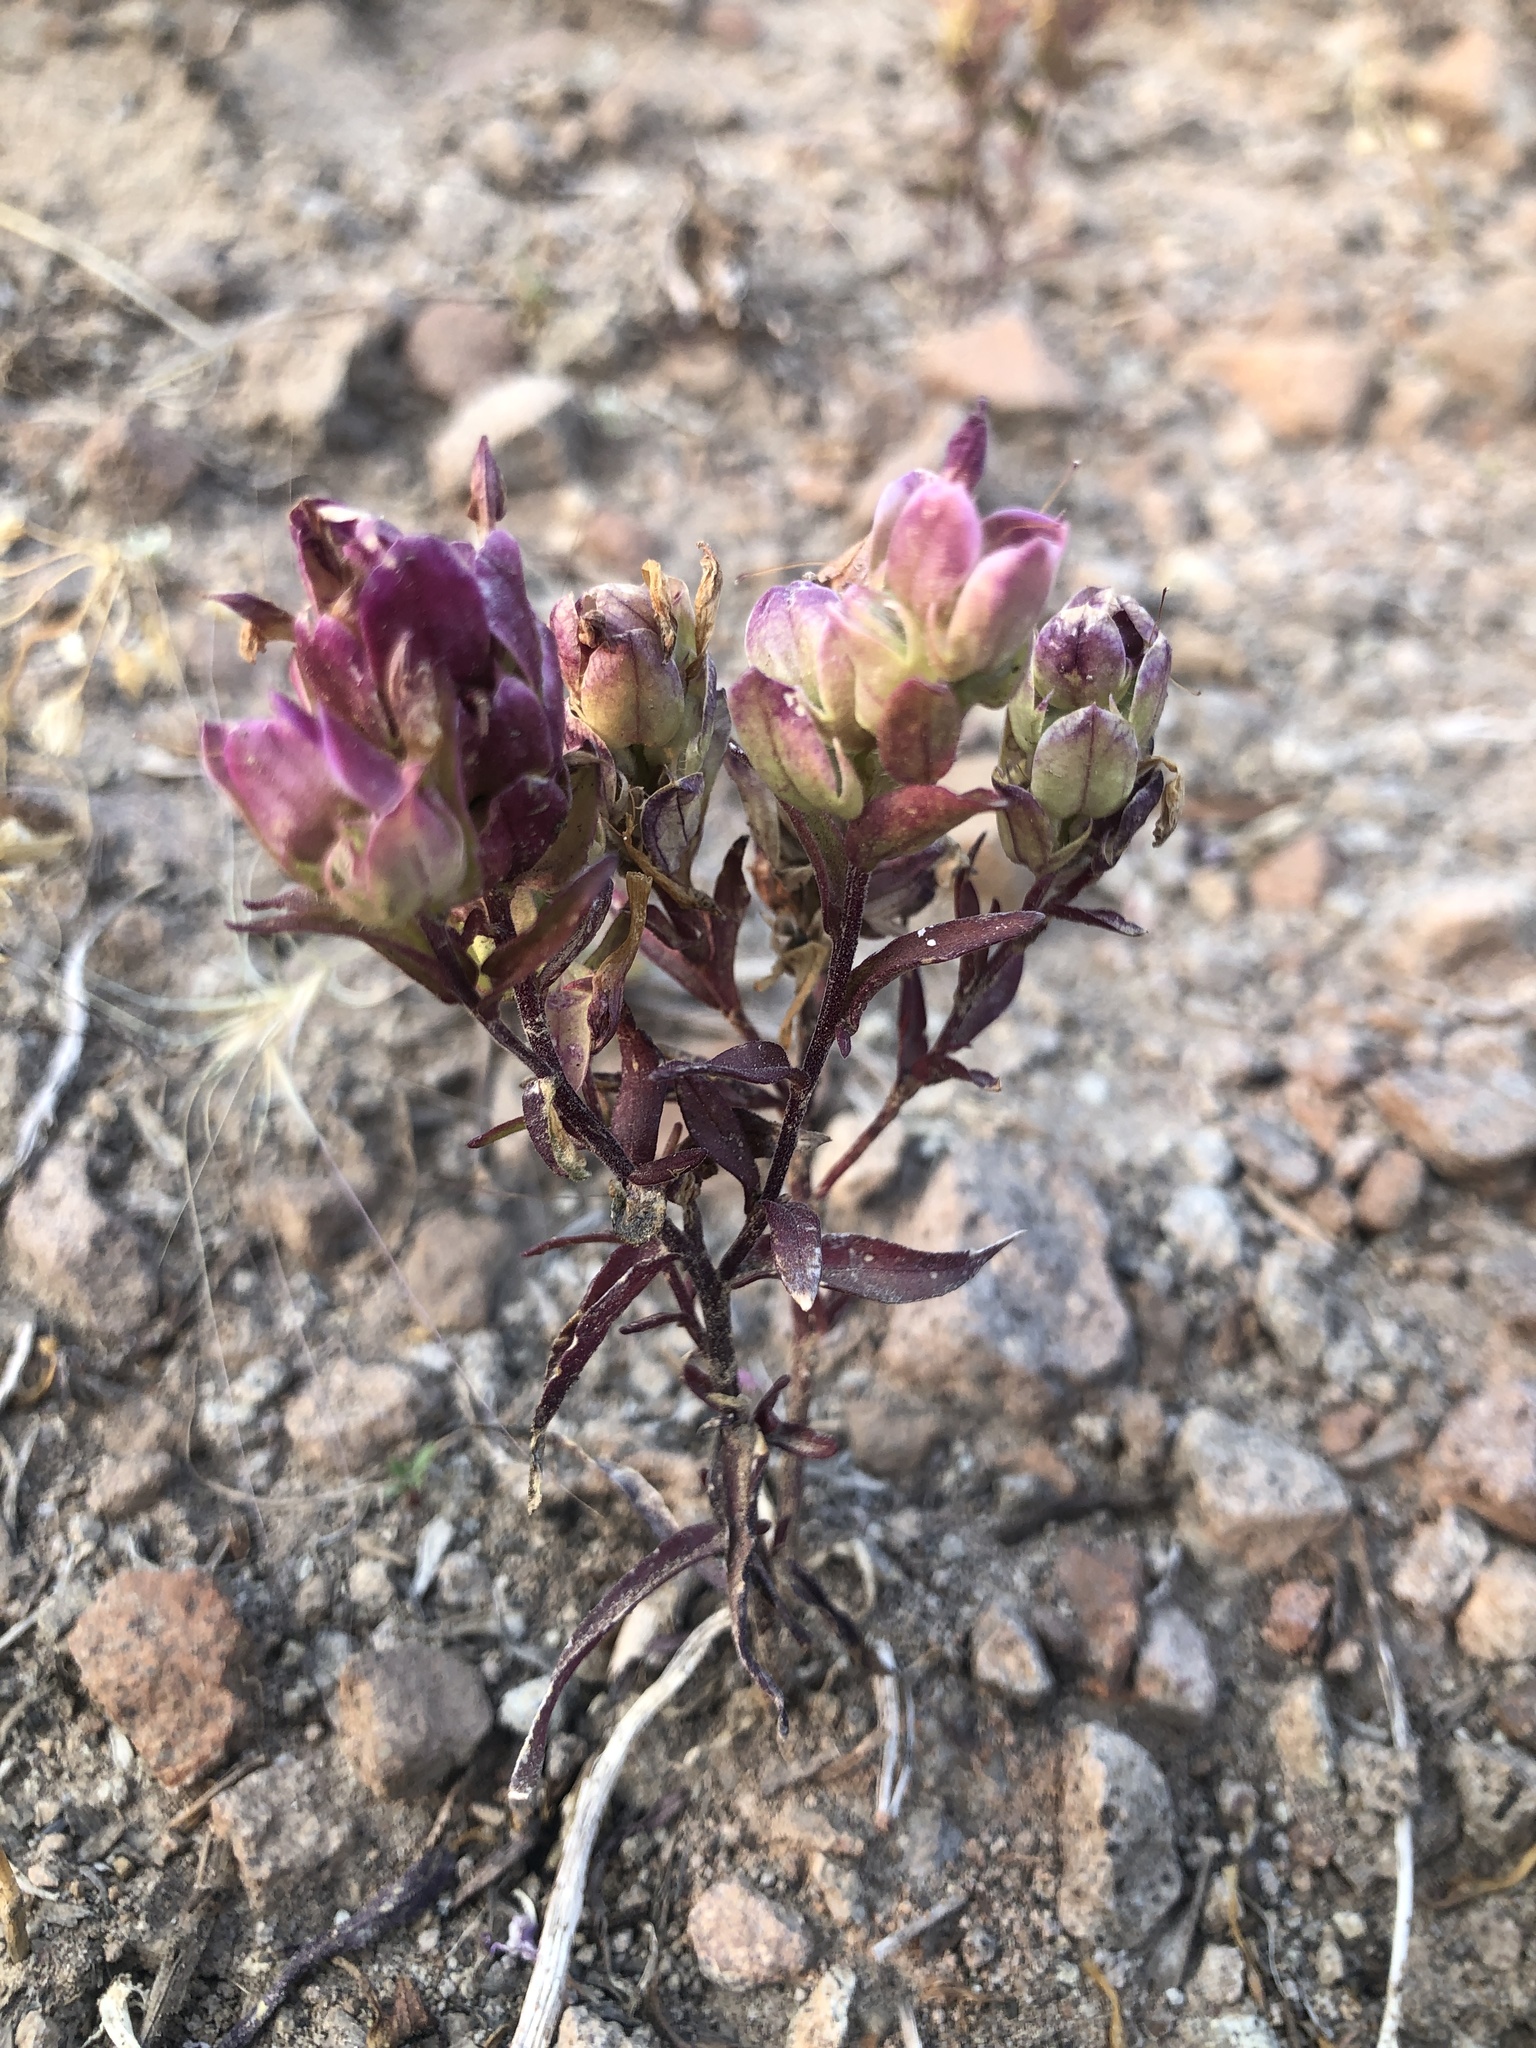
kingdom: Plantae
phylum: Tracheophyta
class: Magnoliopsida
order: Lamiales
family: Orobanchaceae
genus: Orthocarpus
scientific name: Orthocarpus cuspidatus
